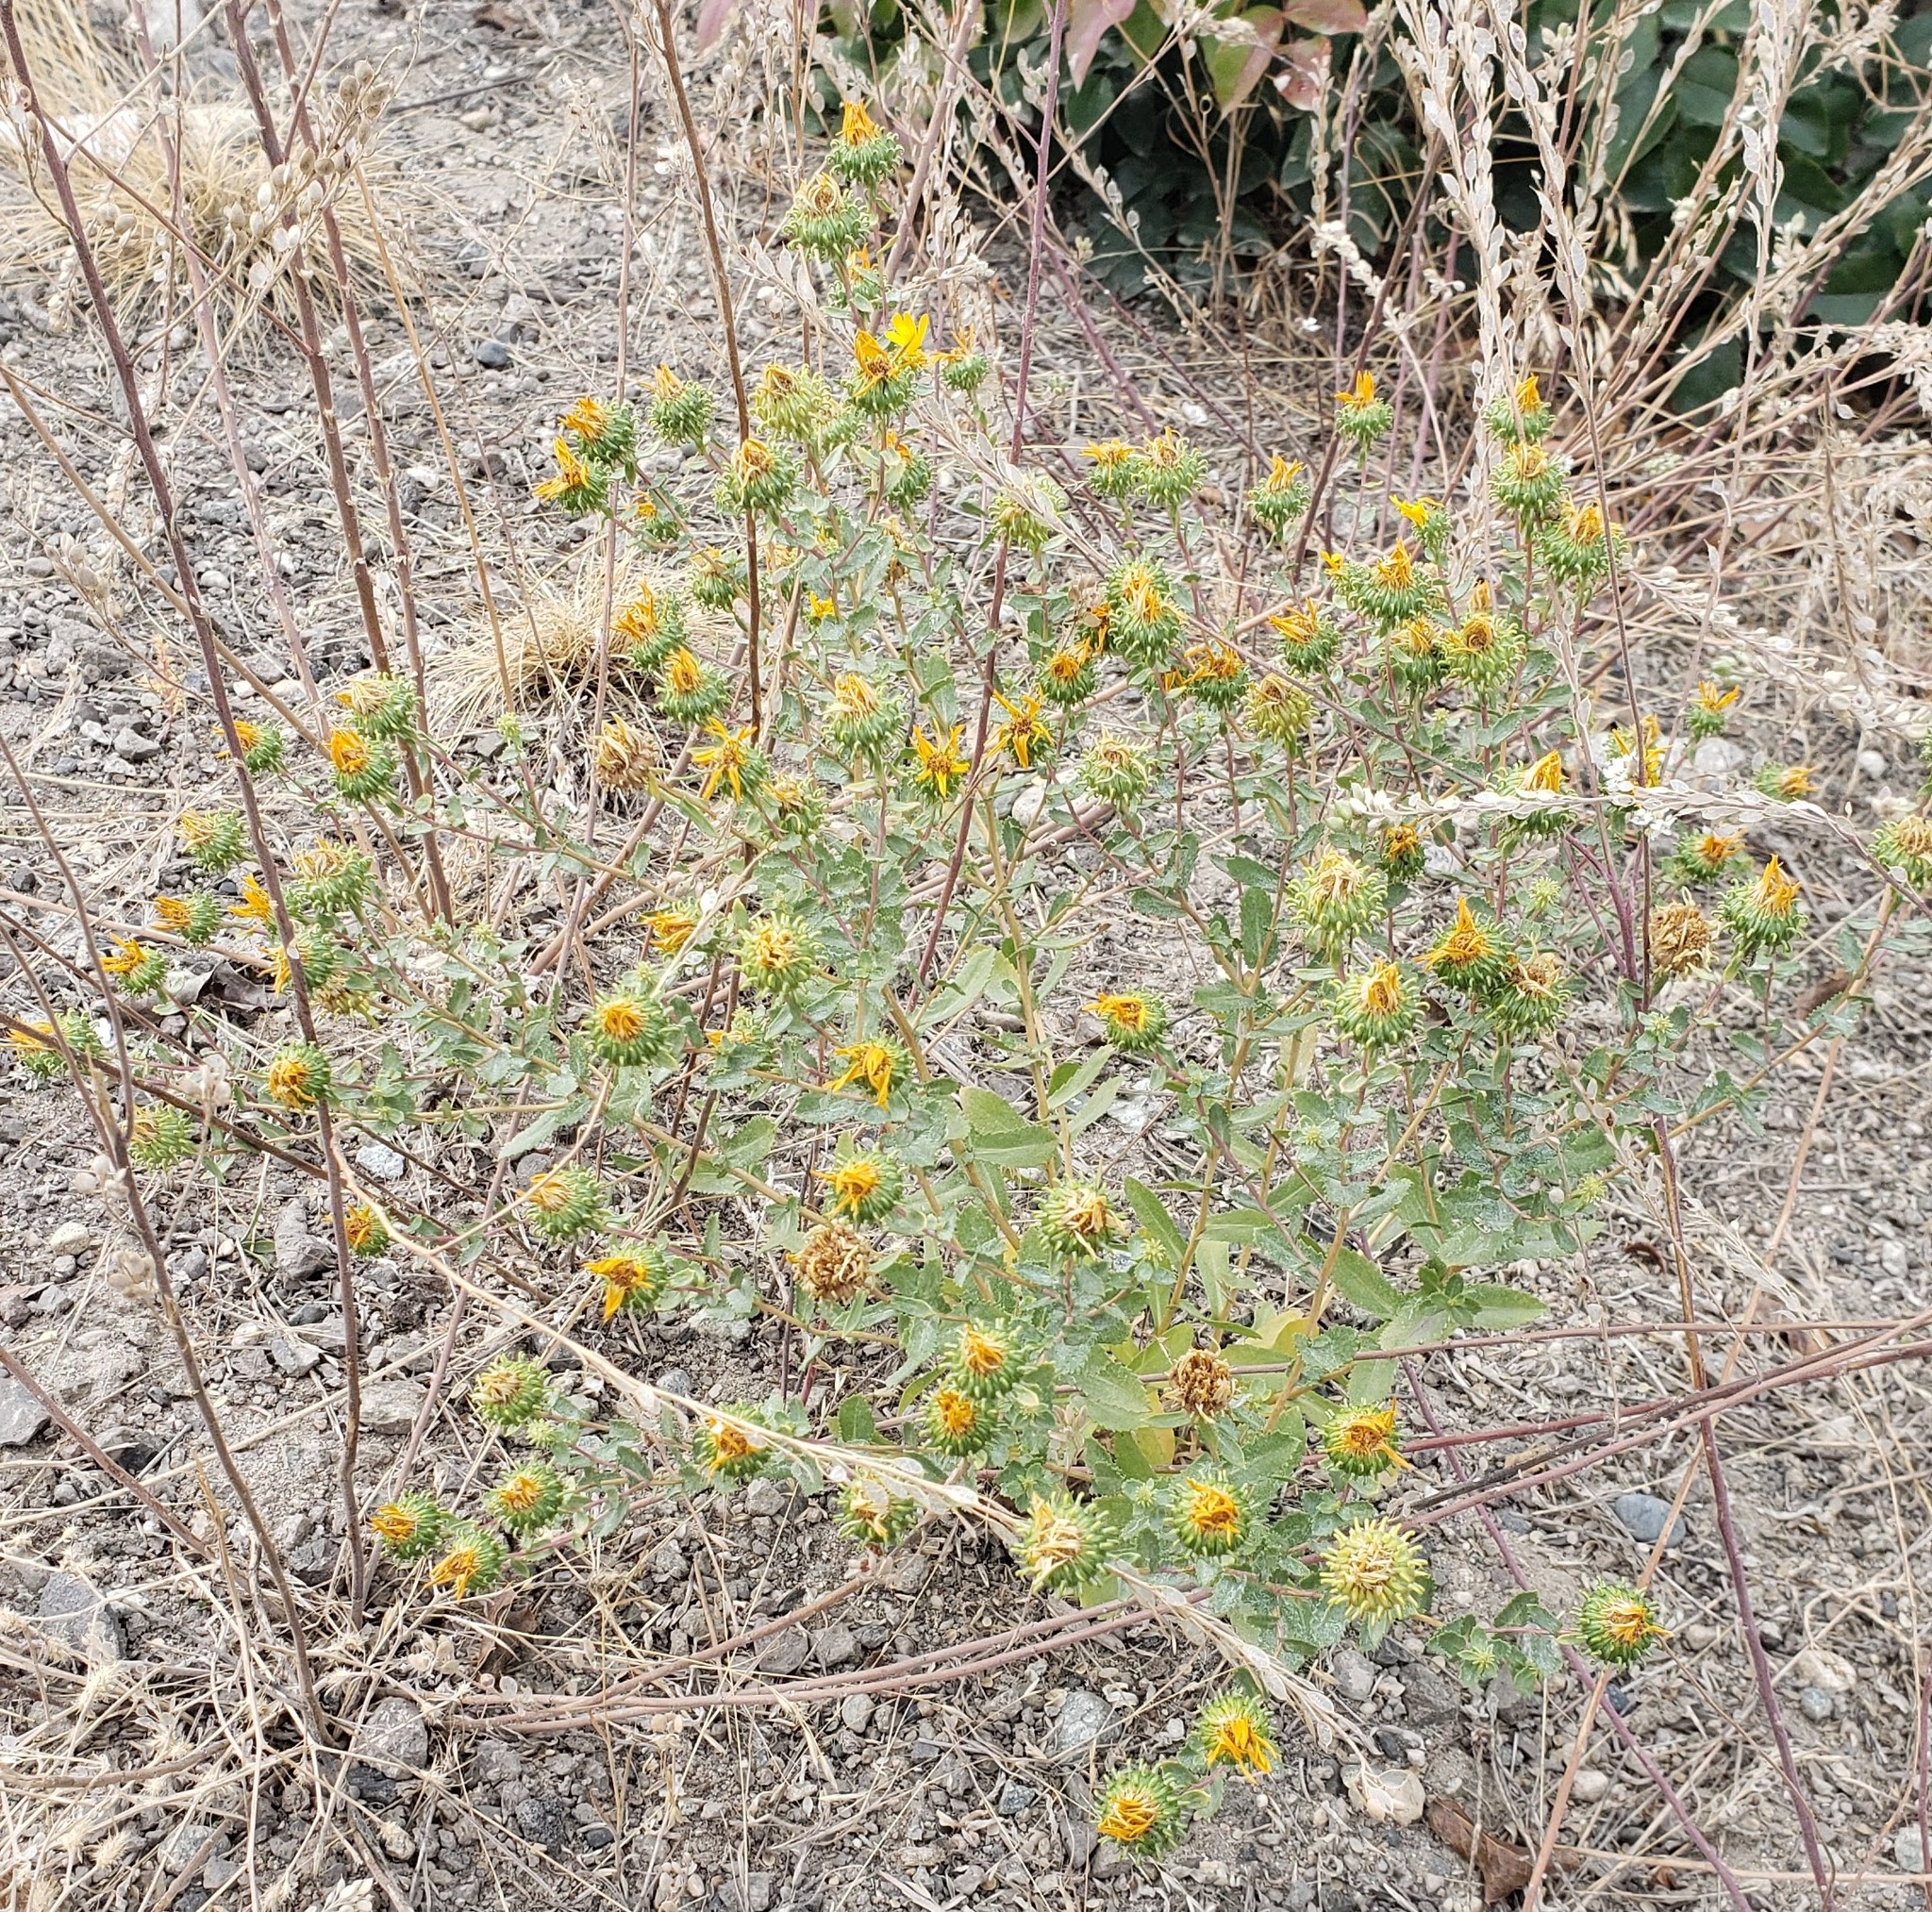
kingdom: Plantae
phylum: Tracheophyta
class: Magnoliopsida
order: Asterales
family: Asteraceae
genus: Grindelia
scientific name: Grindelia squarrosa
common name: Curly-cup gumweed
